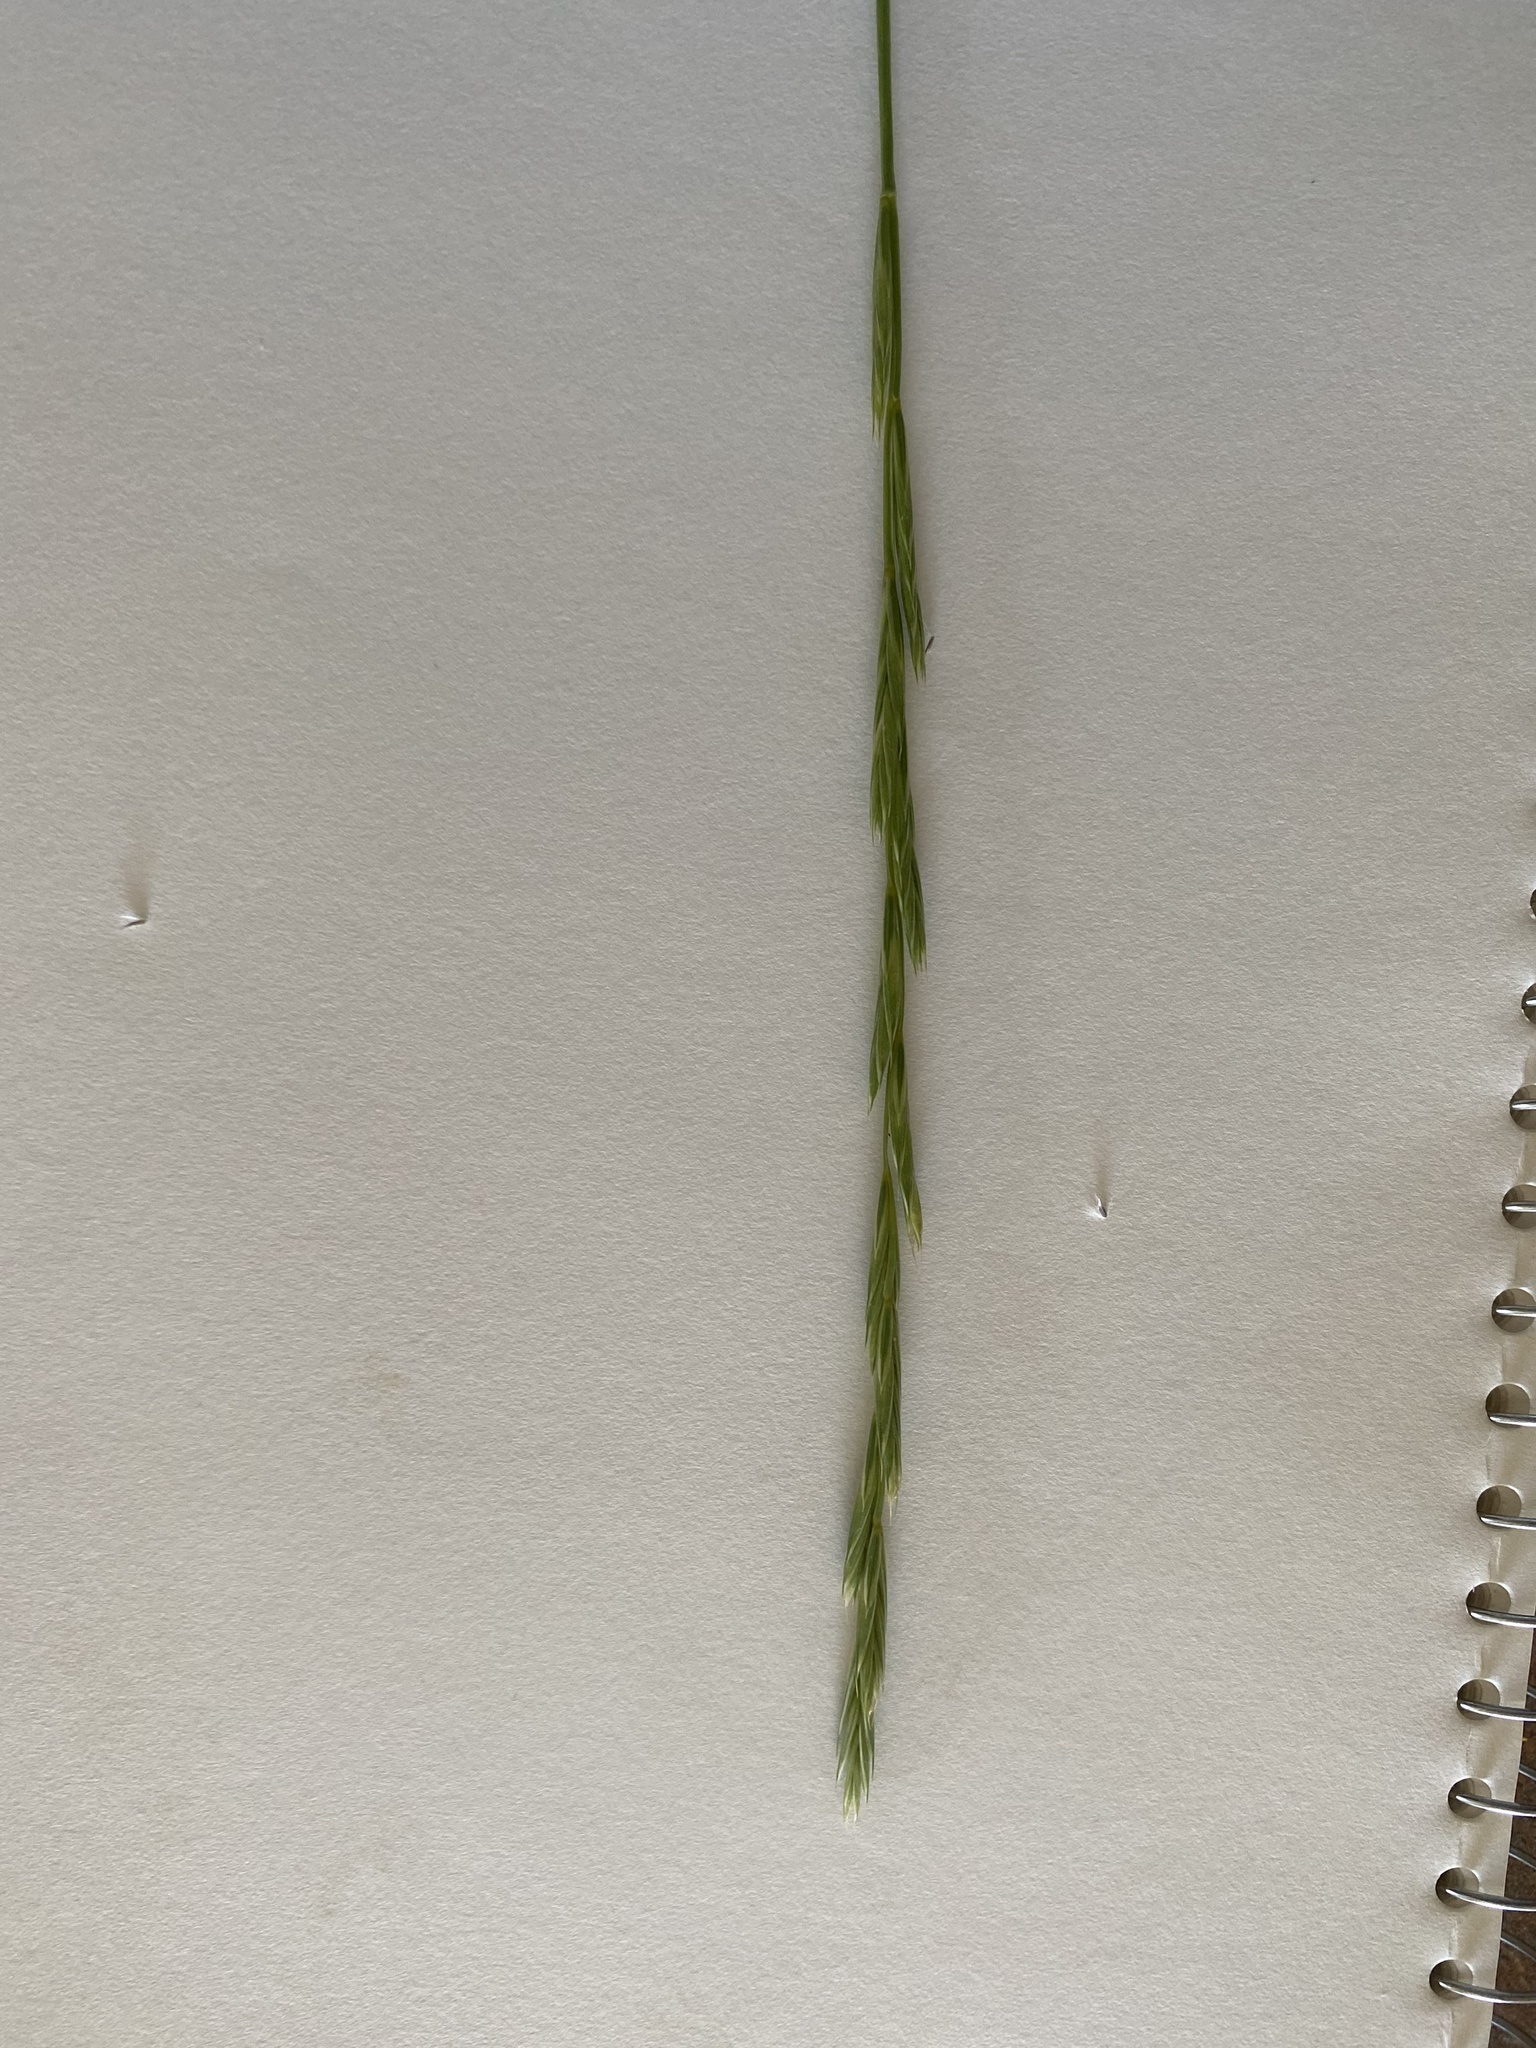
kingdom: Plantae
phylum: Tracheophyta
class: Liliopsida
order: Poales
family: Poaceae
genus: Elymus
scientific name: Elymus violaceus
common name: Arctic wheatgrass
